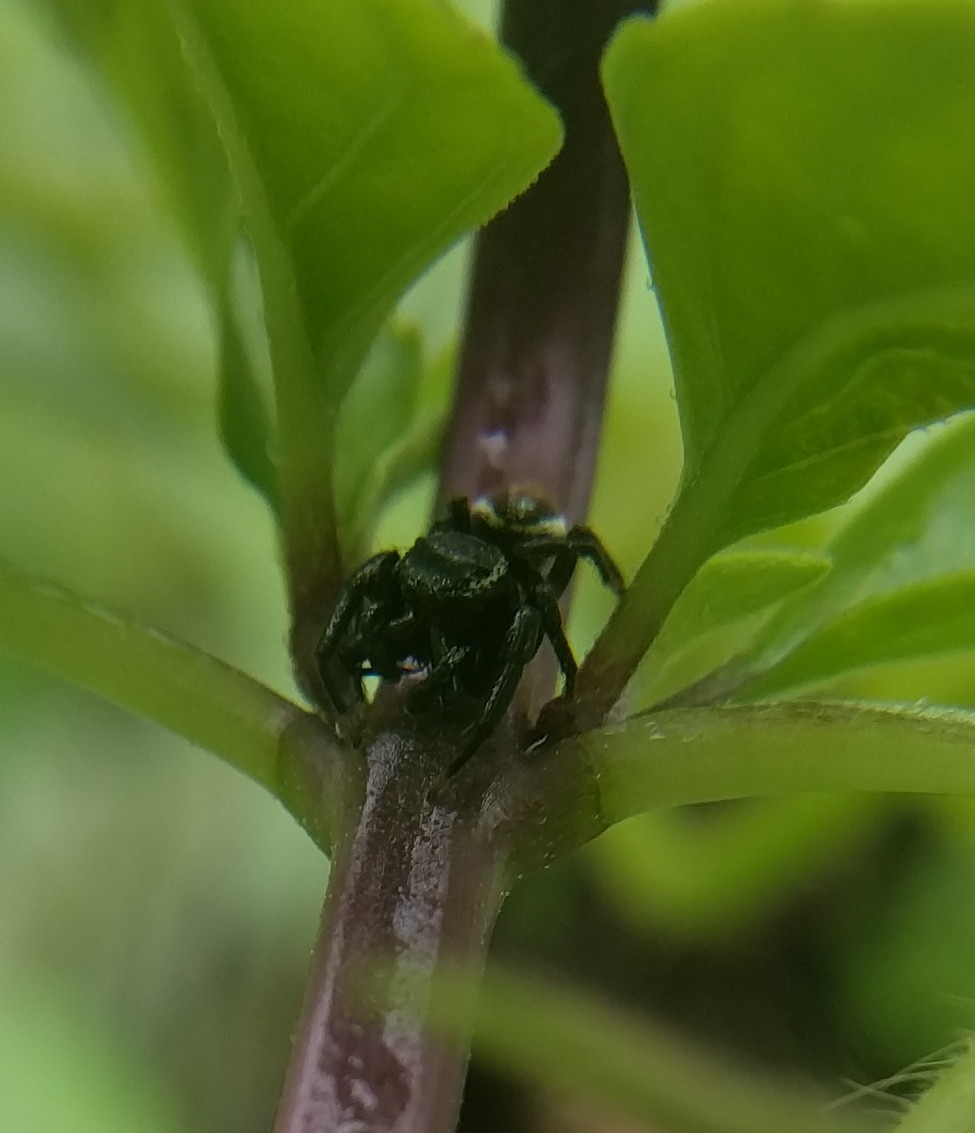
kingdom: Animalia
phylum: Arthropoda
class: Arachnida
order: Araneae
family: Salticidae
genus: Eris
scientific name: Eris militaris
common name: Bronze jumper
